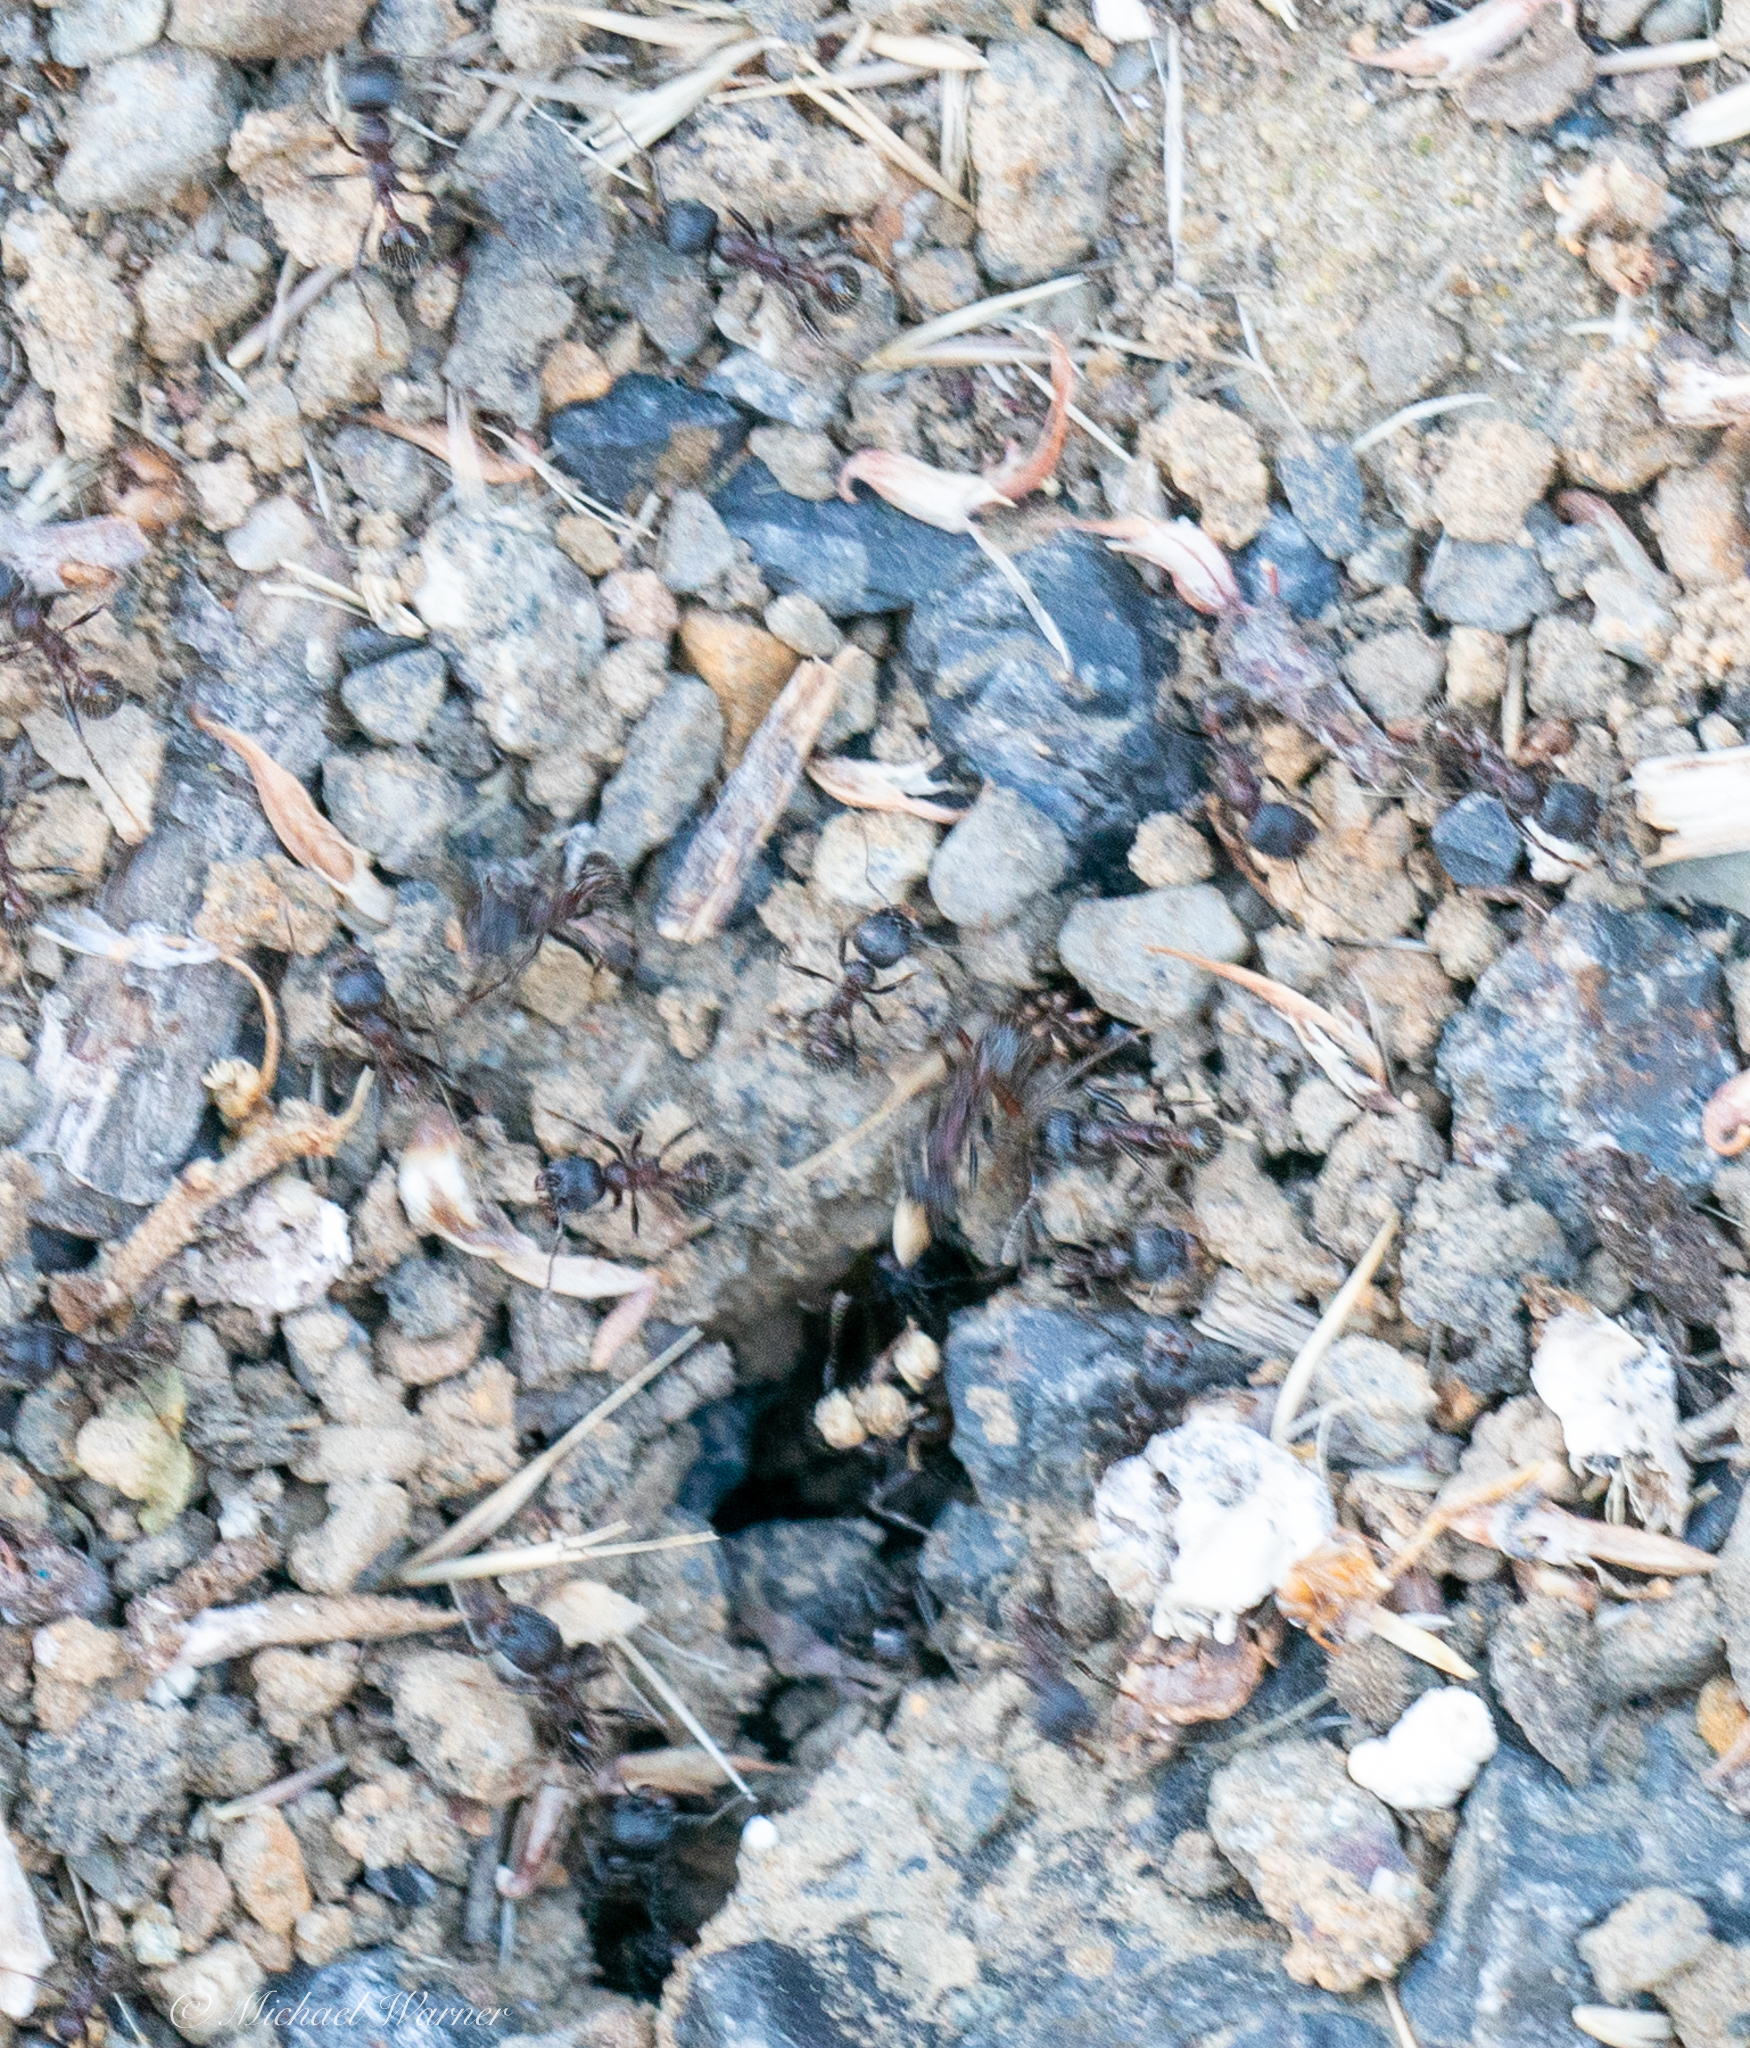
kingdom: Animalia
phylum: Arthropoda
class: Insecta
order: Hymenoptera
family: Formicidae
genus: Veromessor
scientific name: Veromessor andrei
